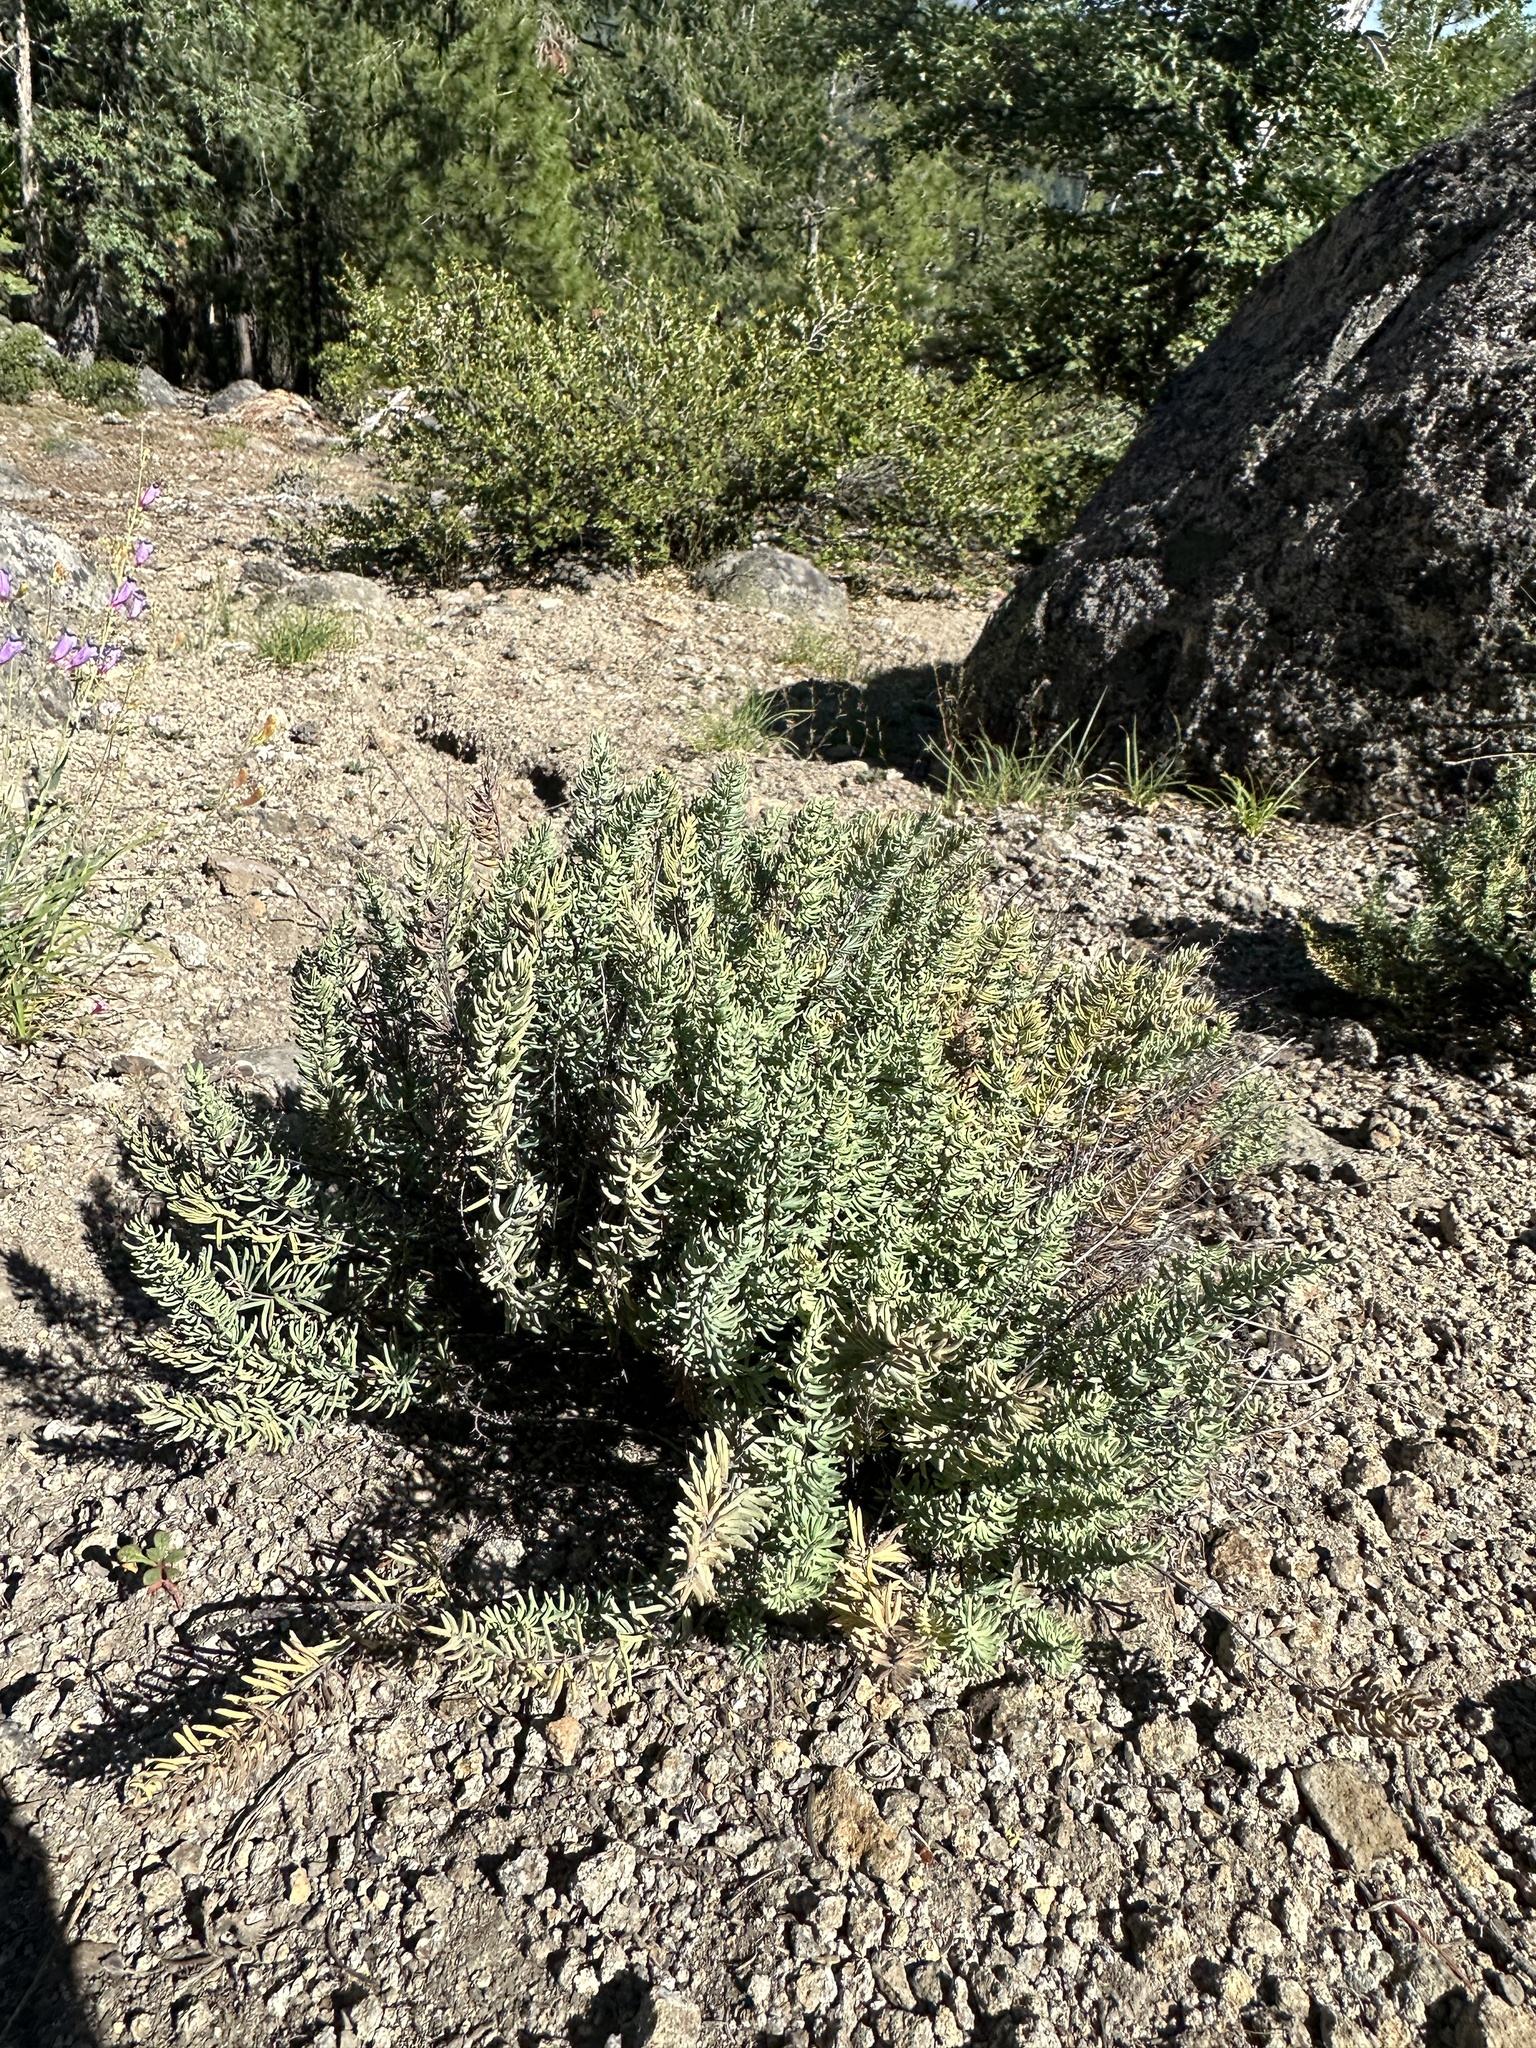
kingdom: Plantae
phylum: Tracheophyta
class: Polypodiopsida
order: Polypodiales
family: Pteridaceae
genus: Pellaea
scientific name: Pellaea brachyptera
